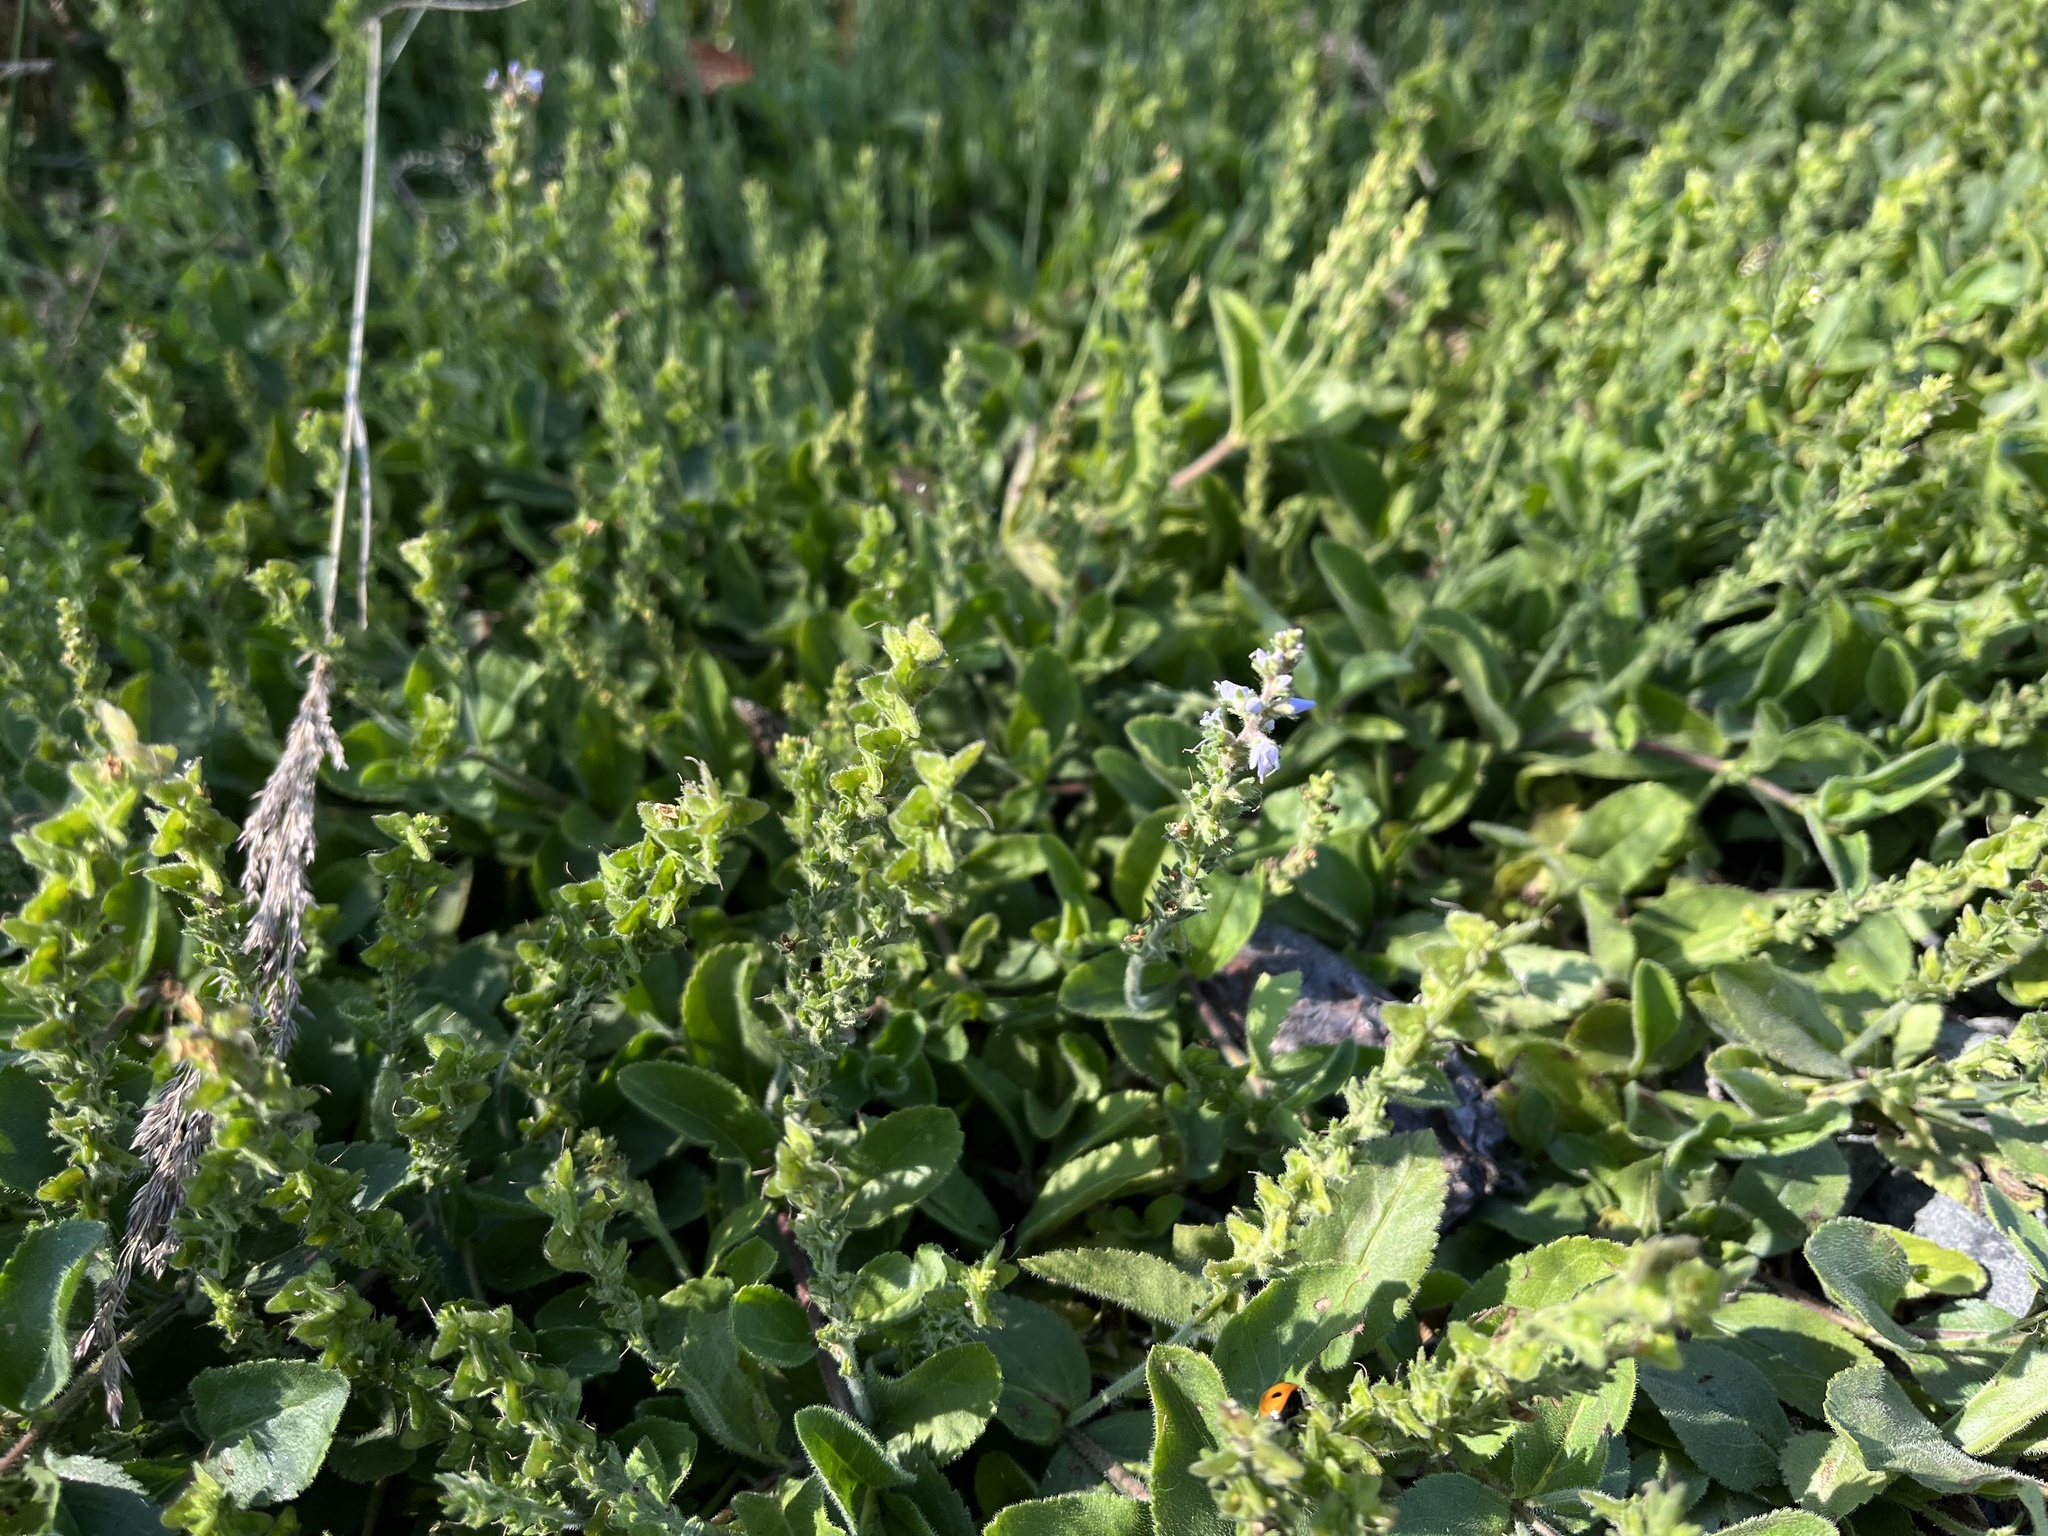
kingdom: Plantae
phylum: Tracheophyta
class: Magnoliopsida
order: Lamiales
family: Plantaginaceae
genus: Veronica
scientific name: Veronica officinalis
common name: Common speedwell
